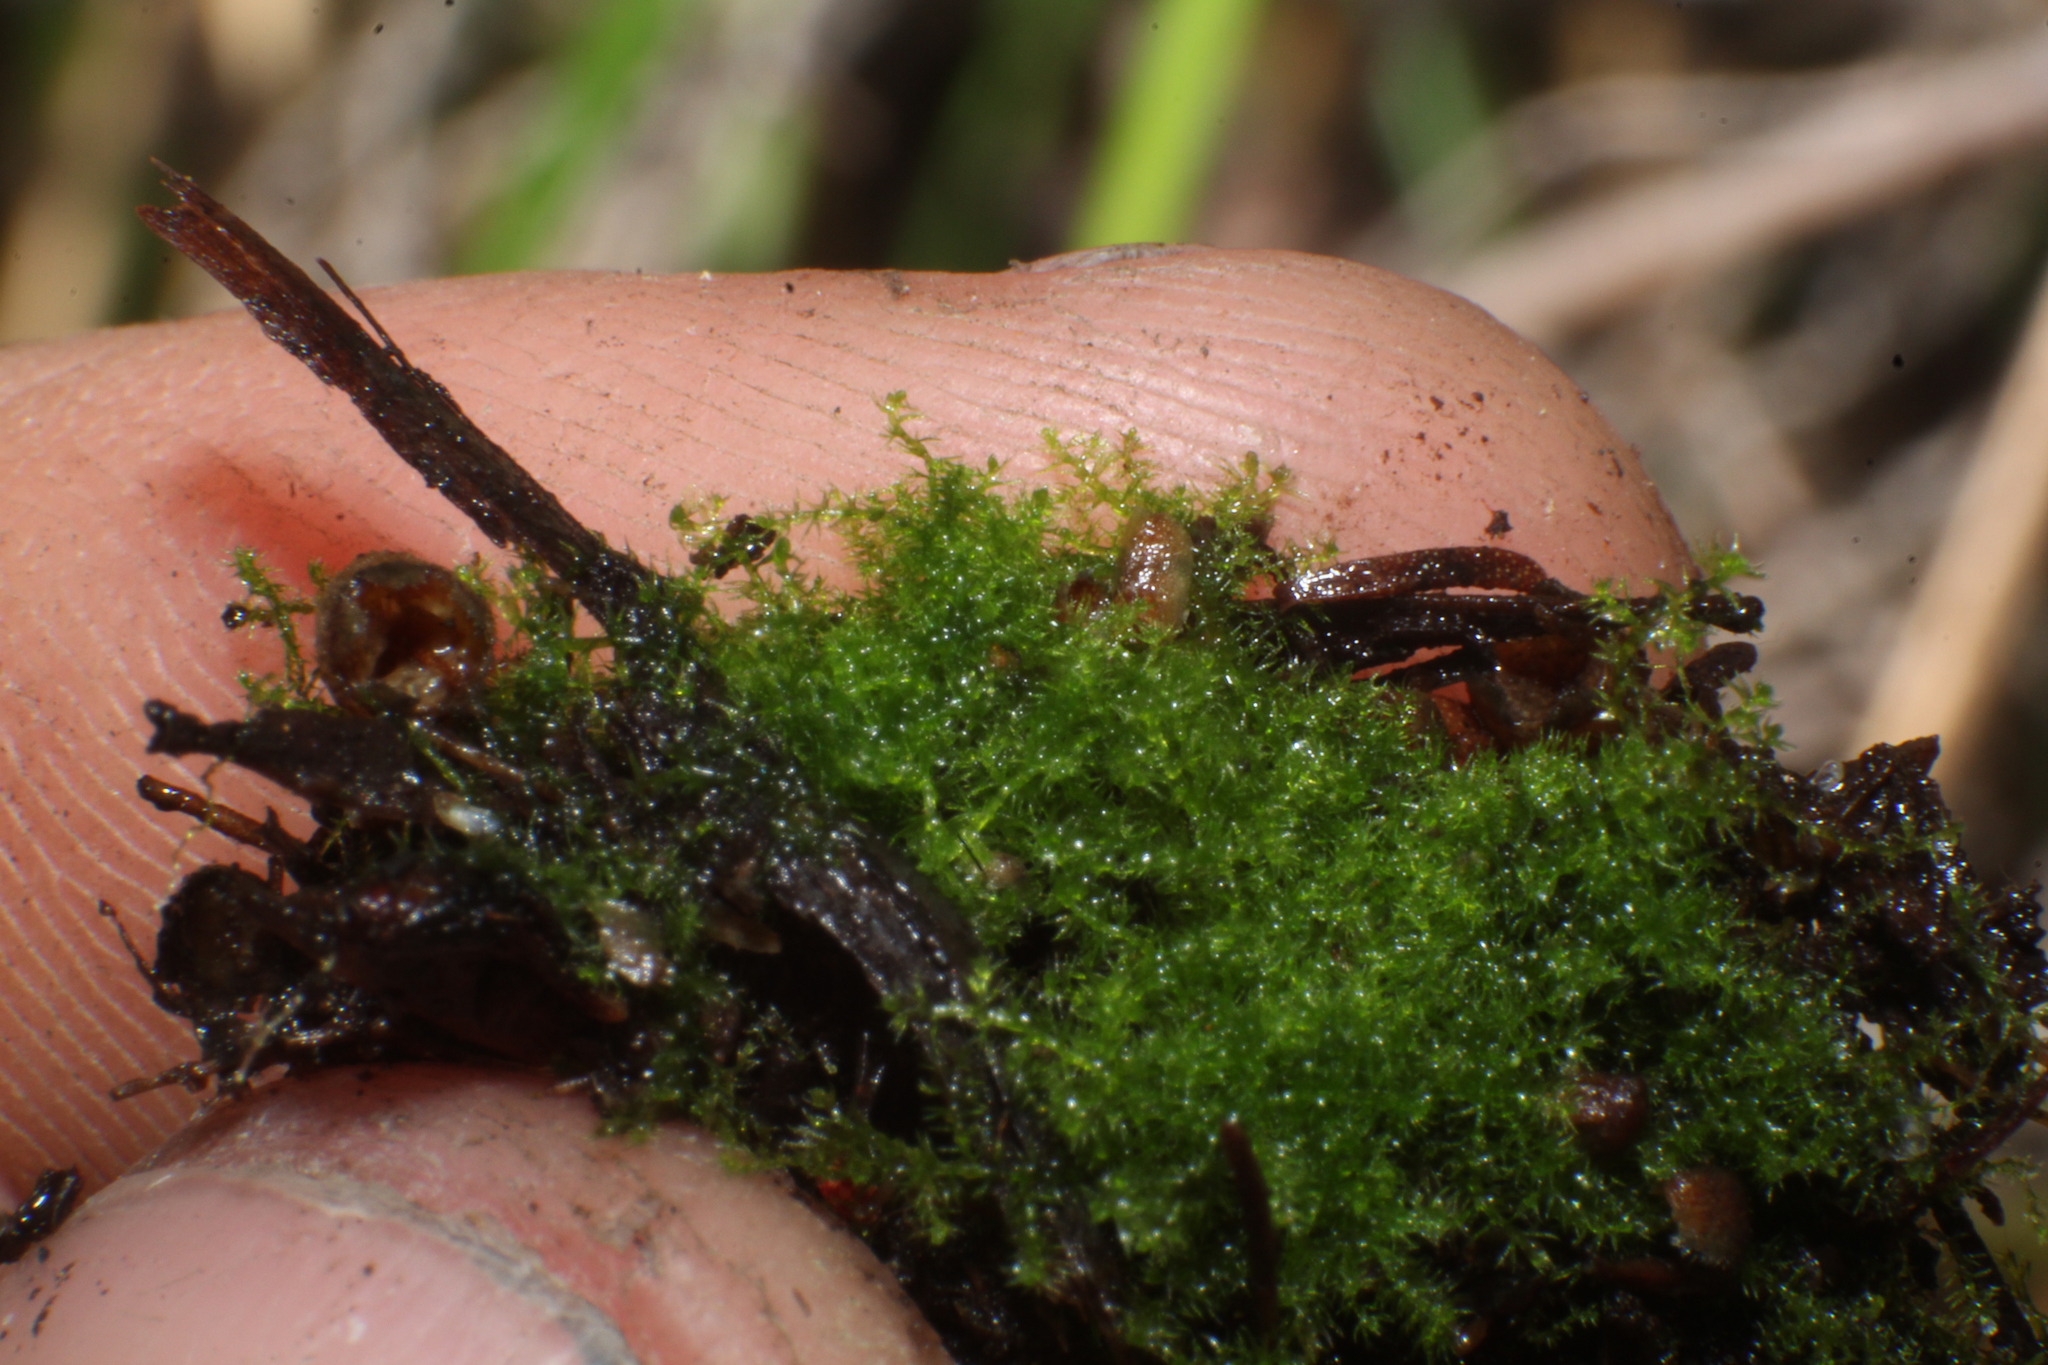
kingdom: Plantae
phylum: Marchantiophyta
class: Jungermanniopsida
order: Jungermanniales
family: Lepidoziaceae
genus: Paracromastigum
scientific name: Paracromastigum longiscyphum
